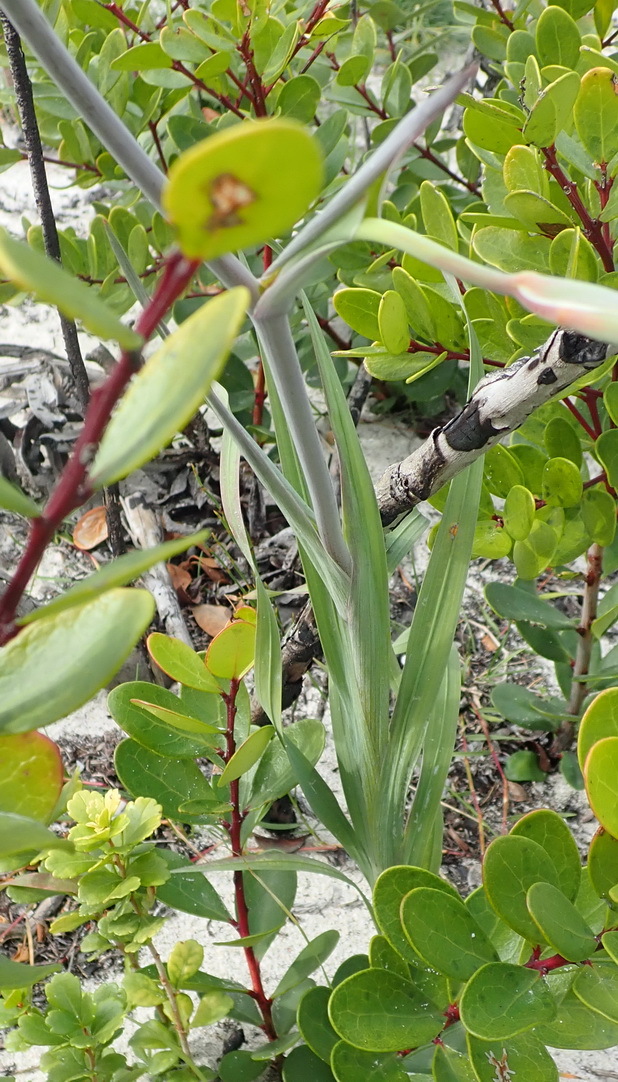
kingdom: Plantae
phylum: Tracheophyta
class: Liliopsida
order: Asparagales
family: Iridaceae
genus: Gladiolus
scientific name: Gladiolus cunonius
